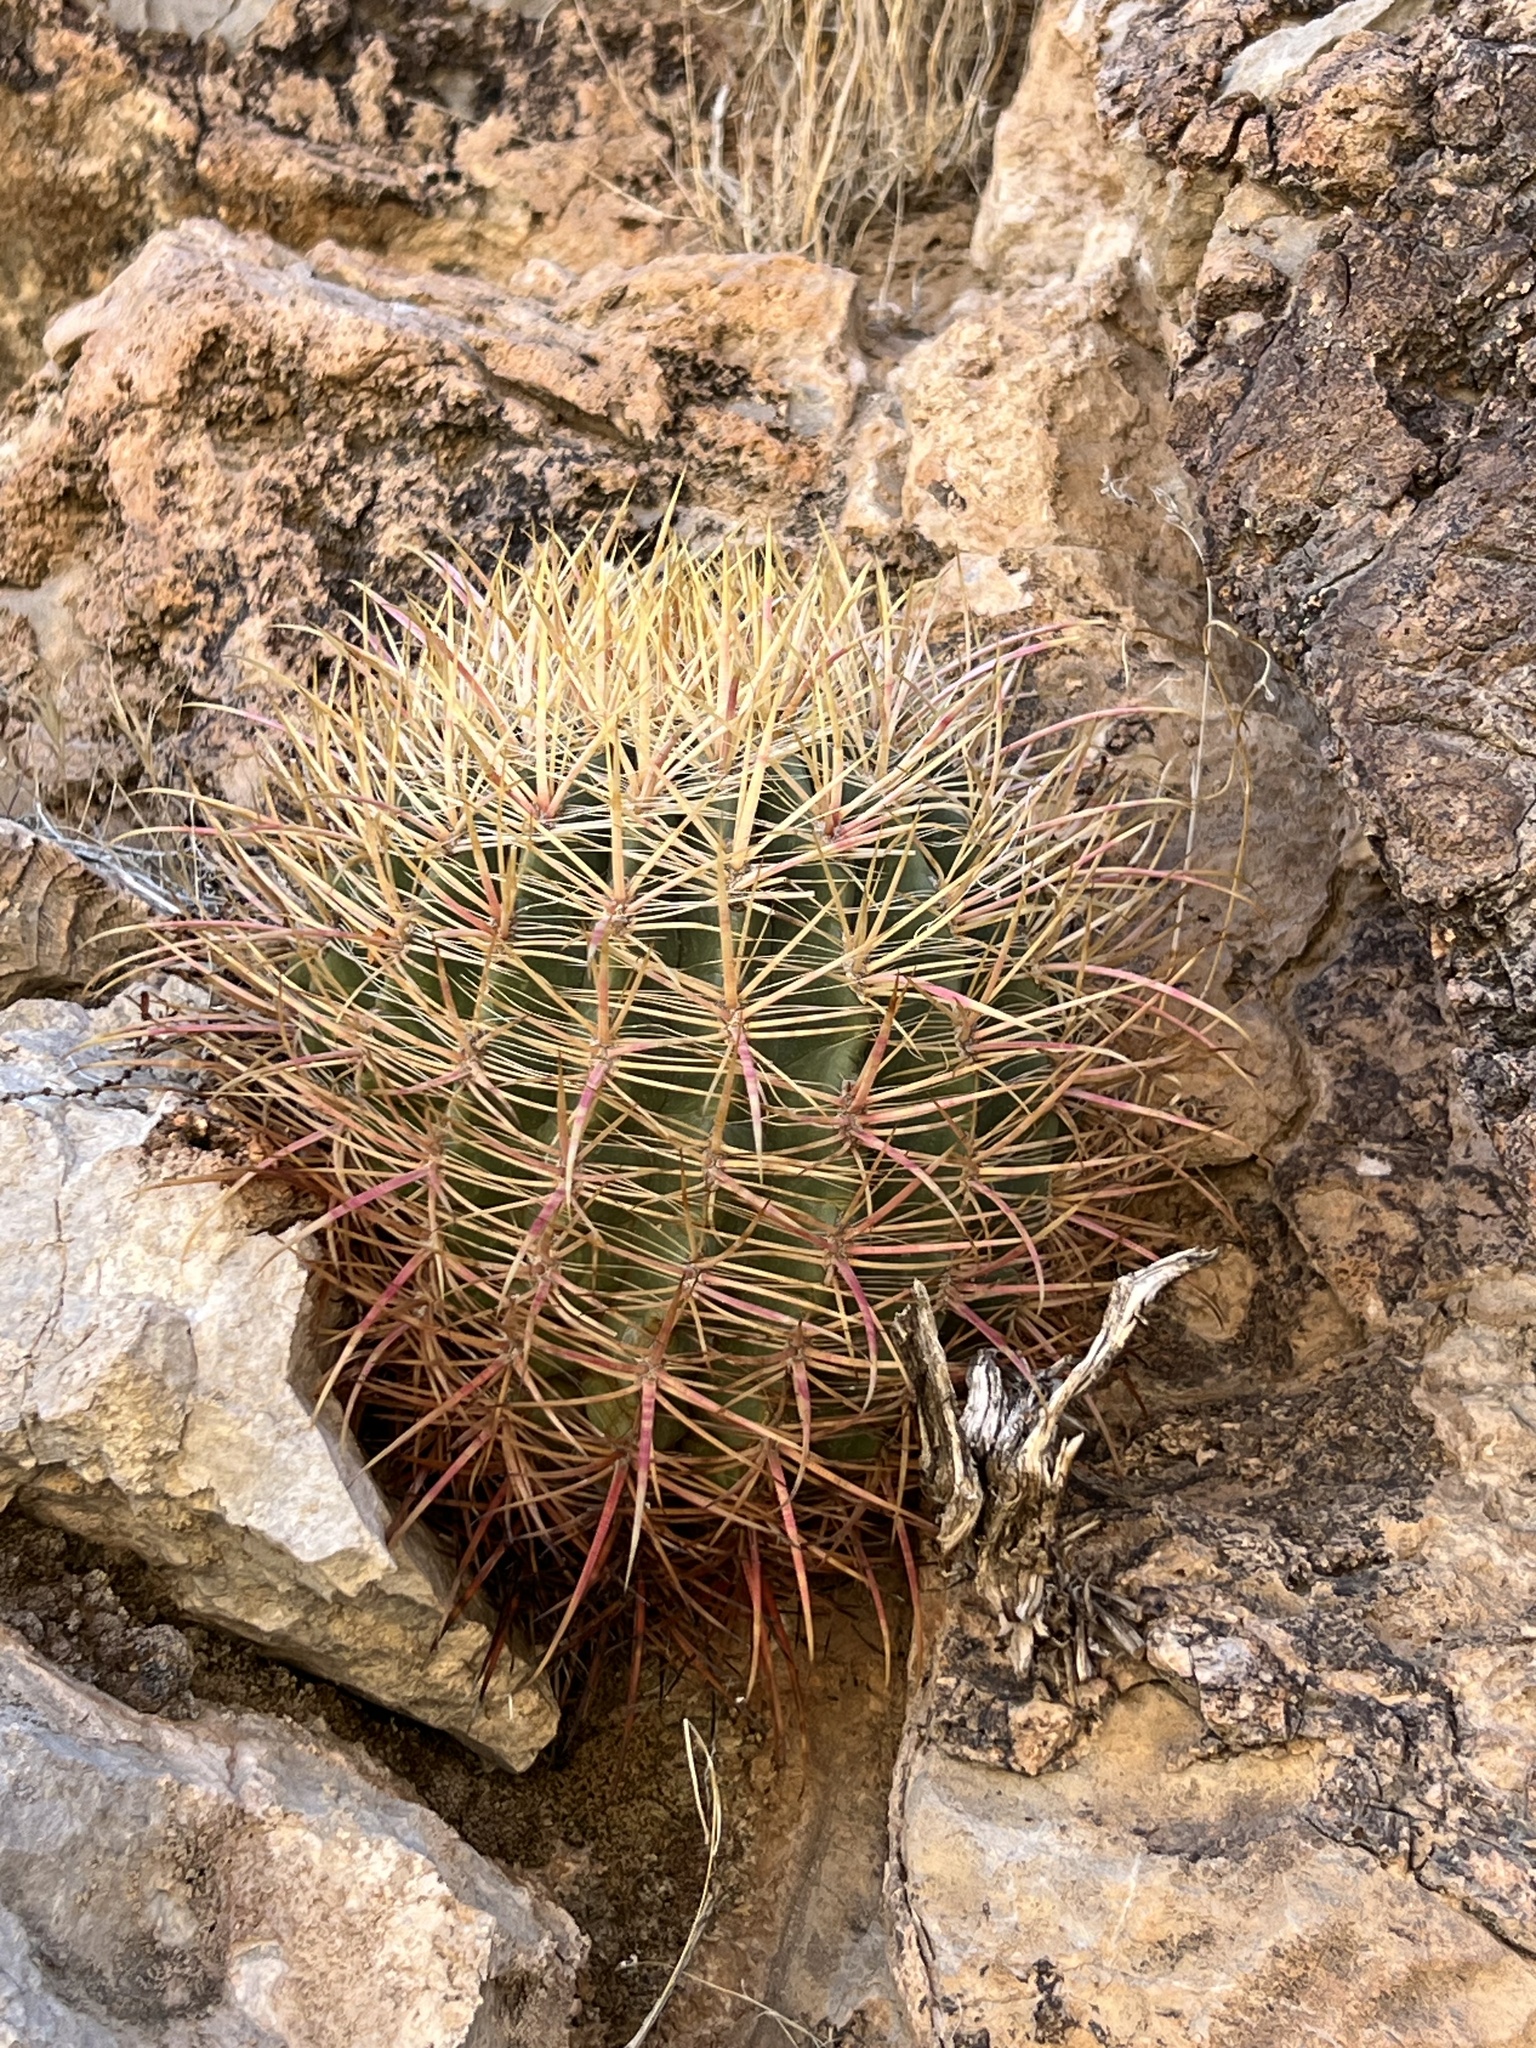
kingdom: Plantae
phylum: Tracheophyta
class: Magnoliopsida
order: Caryophyllales
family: Cactaceae
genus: Ferocactus
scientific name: Ferocactus cylindraceus
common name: California barrel cactus
